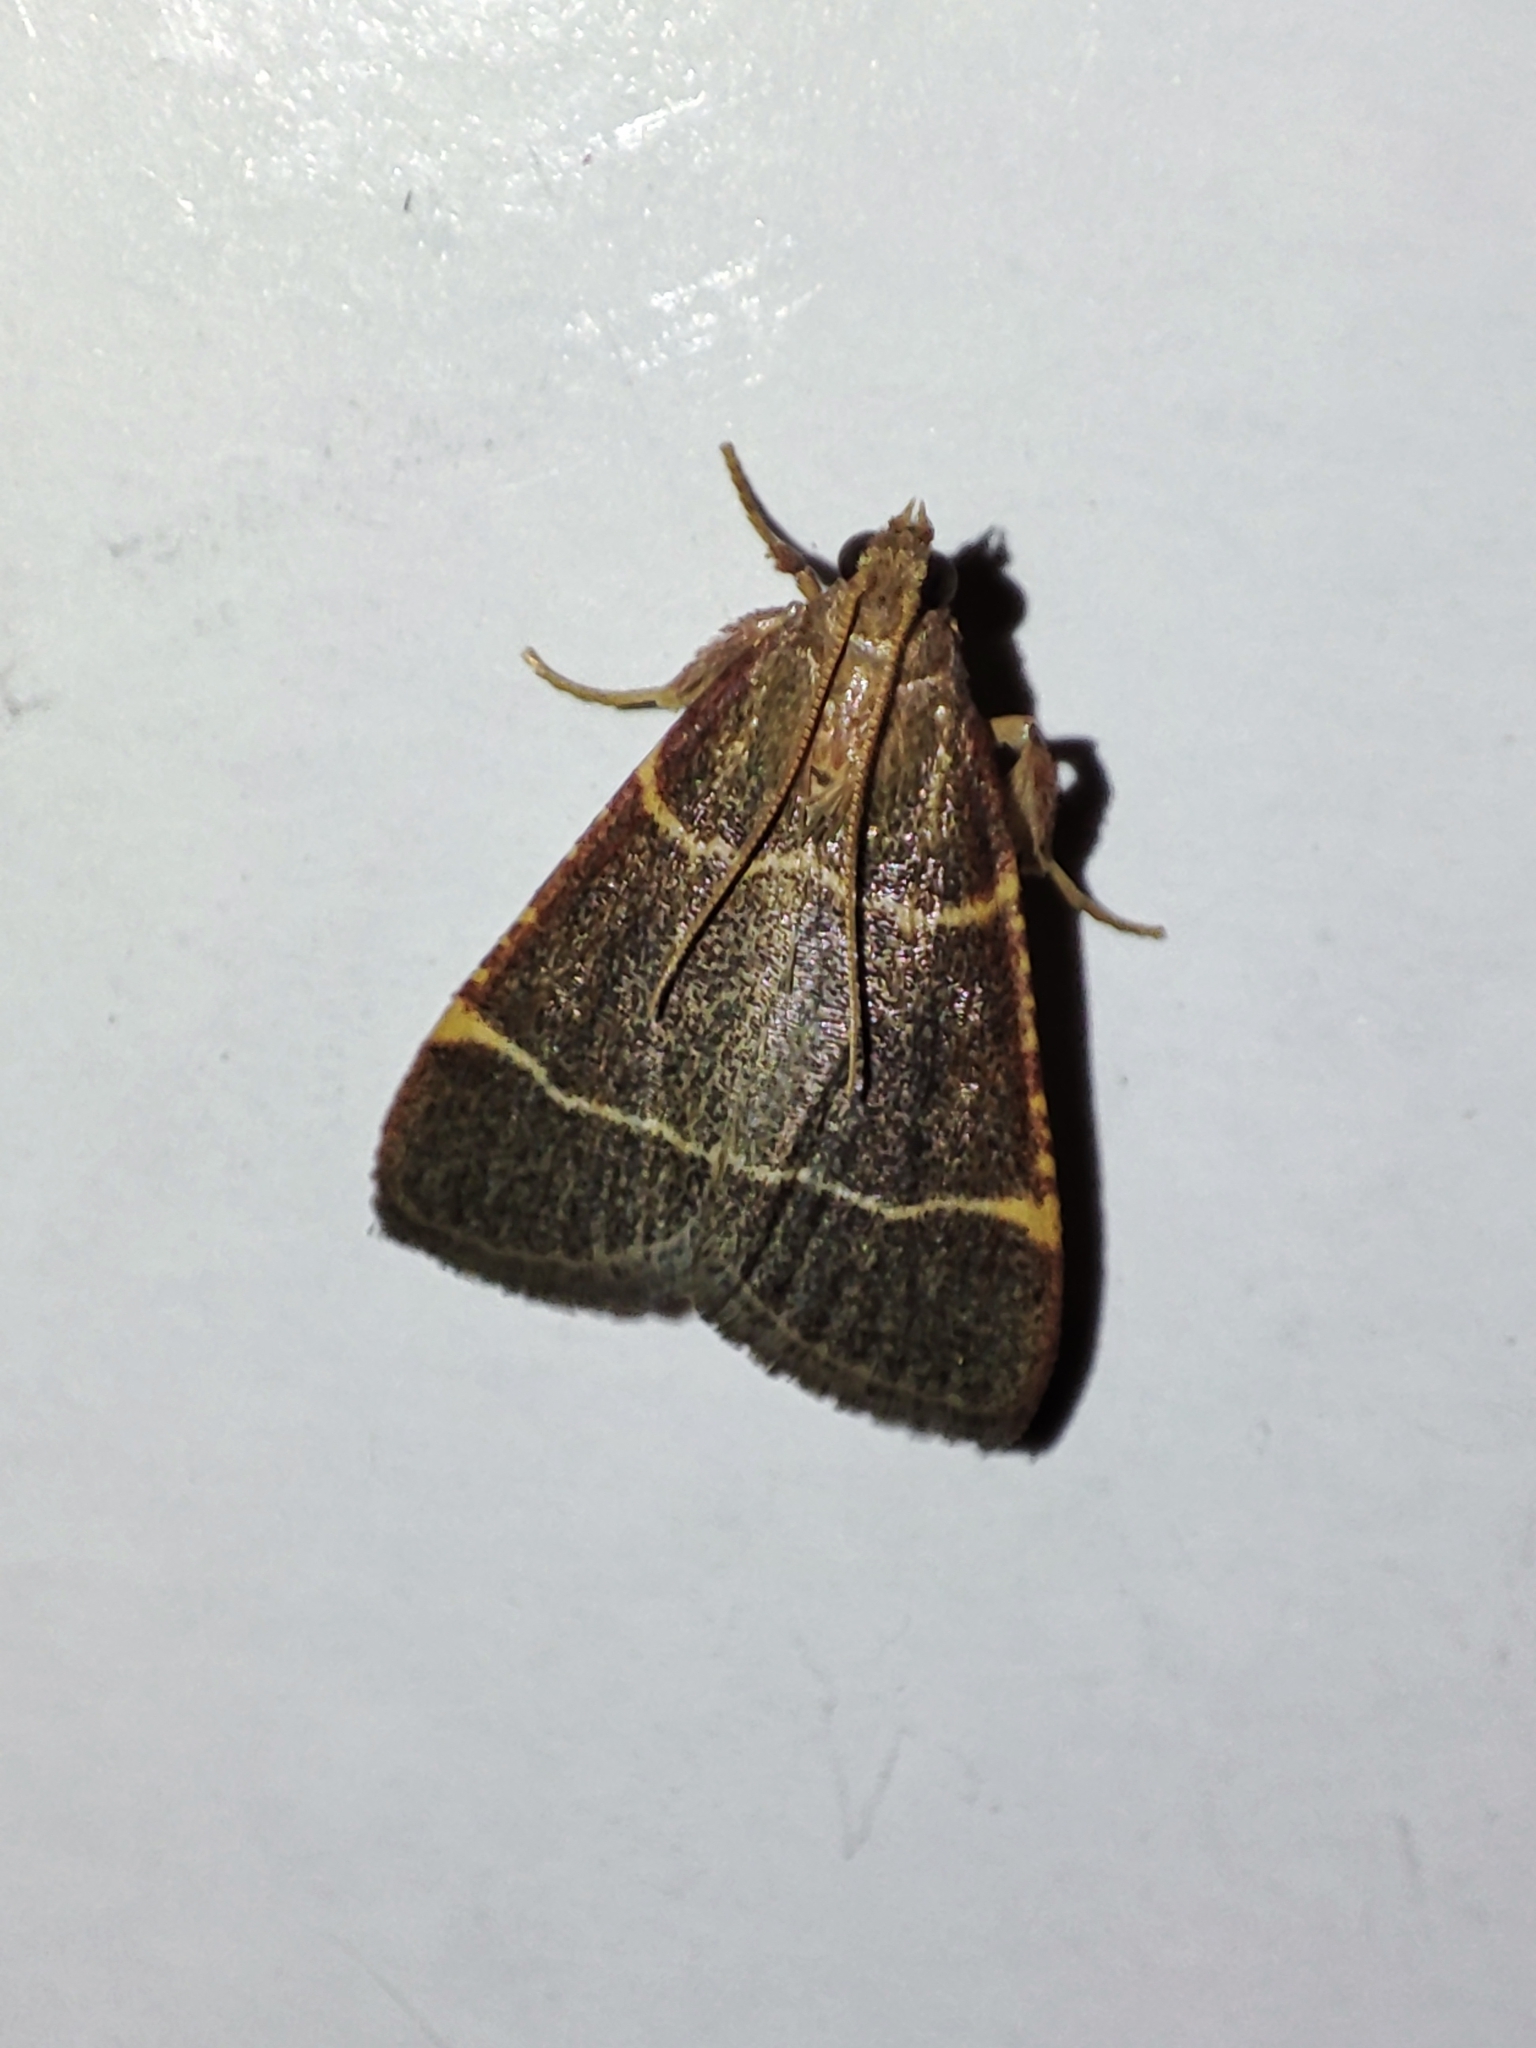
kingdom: Animalia
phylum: Arthropoda
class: Insecta
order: Lepidoptera
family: Pyralidae
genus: Hypsopygia
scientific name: Hypsopygia glaucinalis
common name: Double-striped tabby
